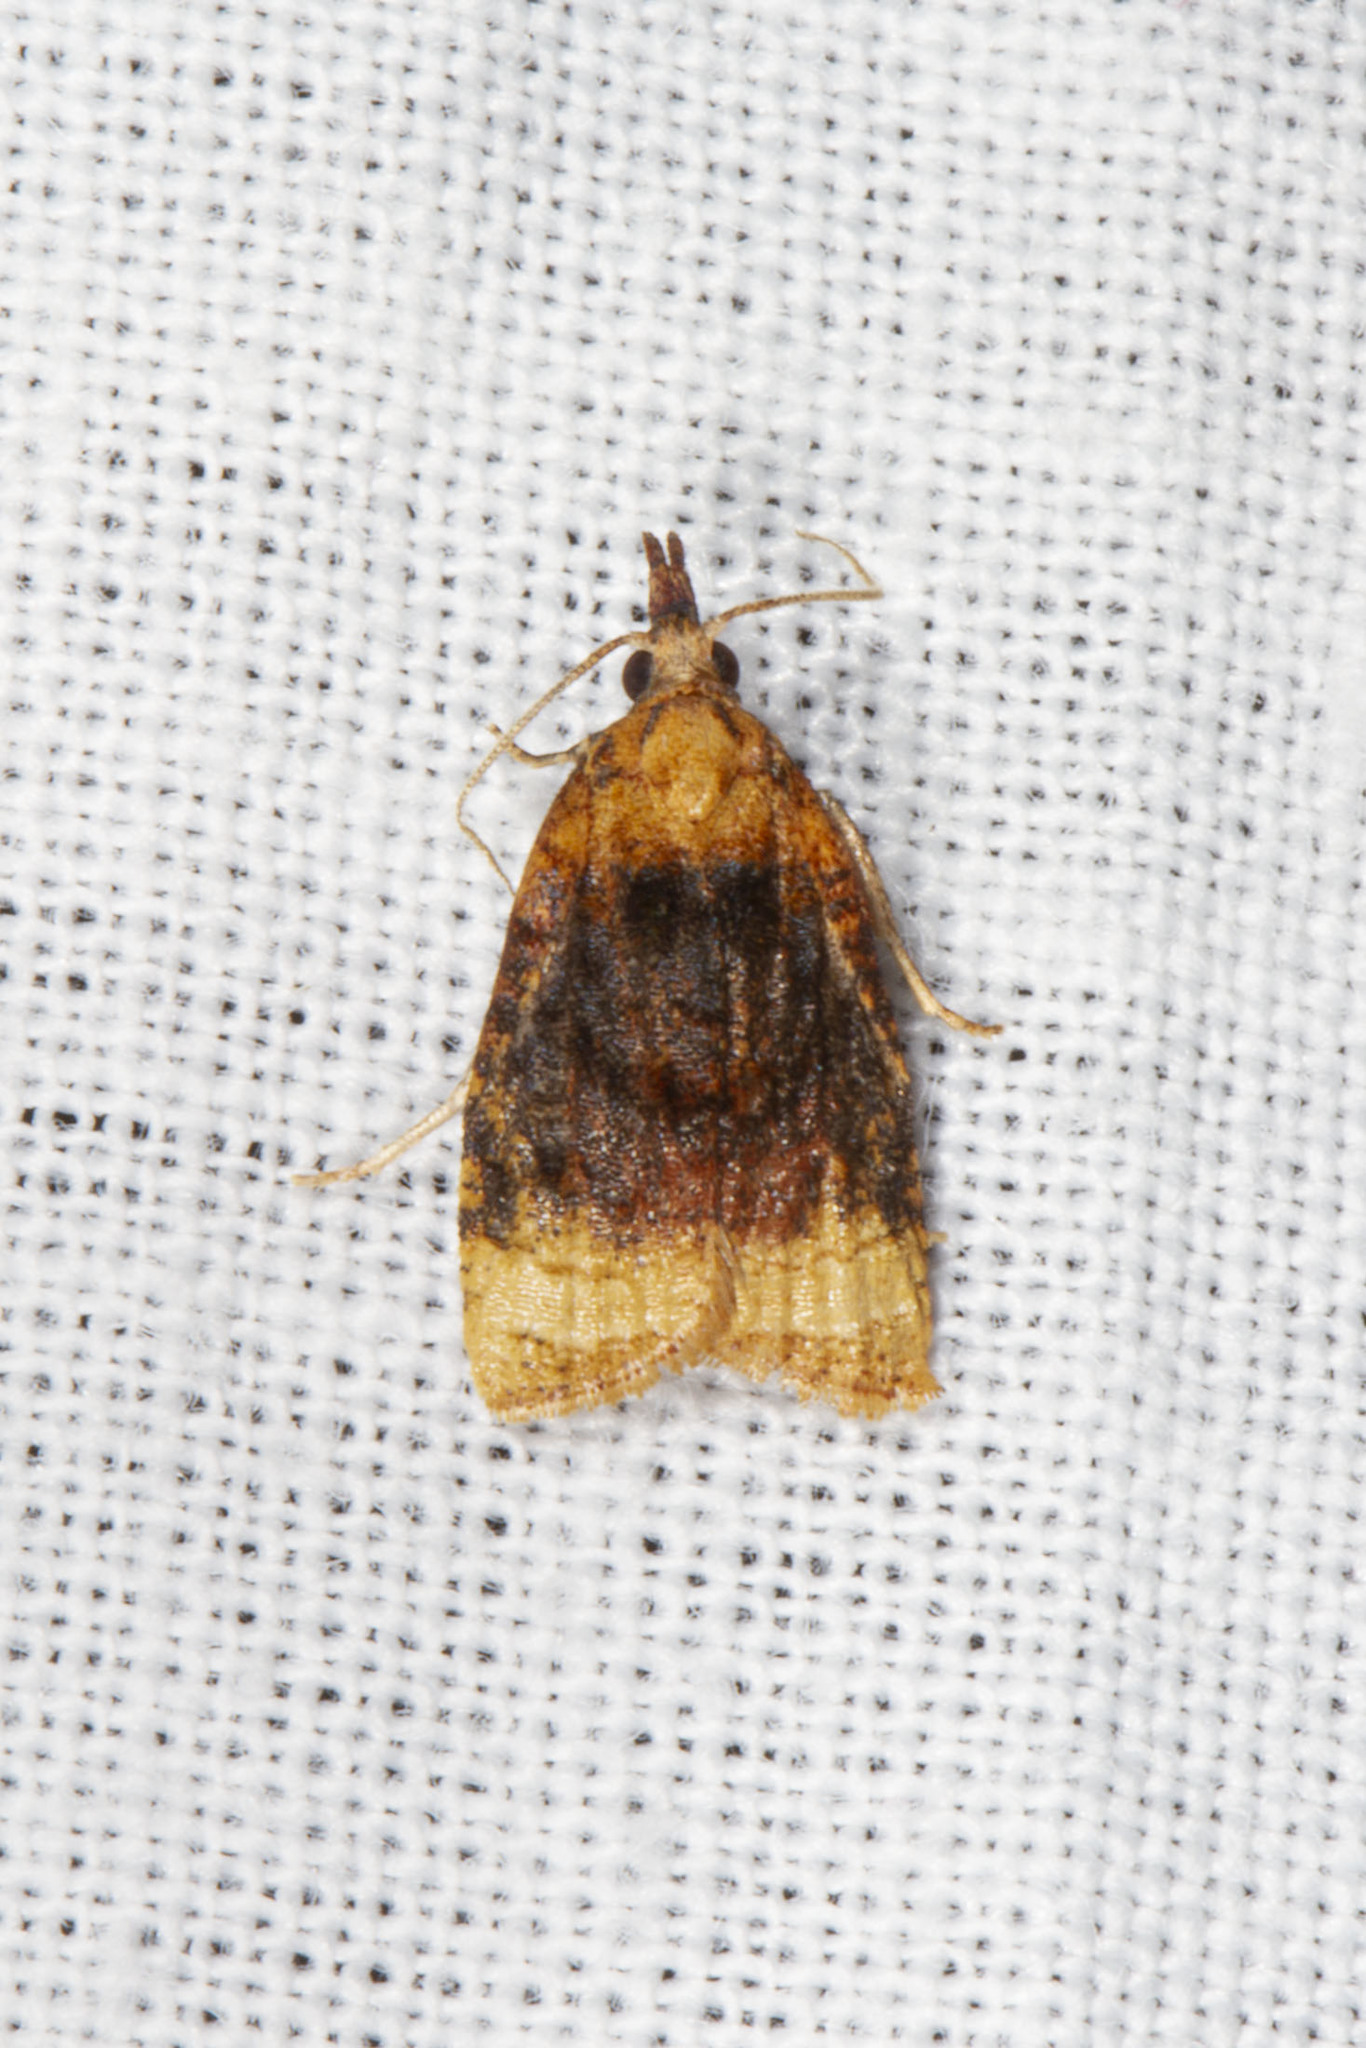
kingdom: Animalia
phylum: Arthropoda
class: Insecta
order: Lepidoptera
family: Tortricidae
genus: Platynota
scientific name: Platynota flavedana
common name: Black-shaded platynota moth
